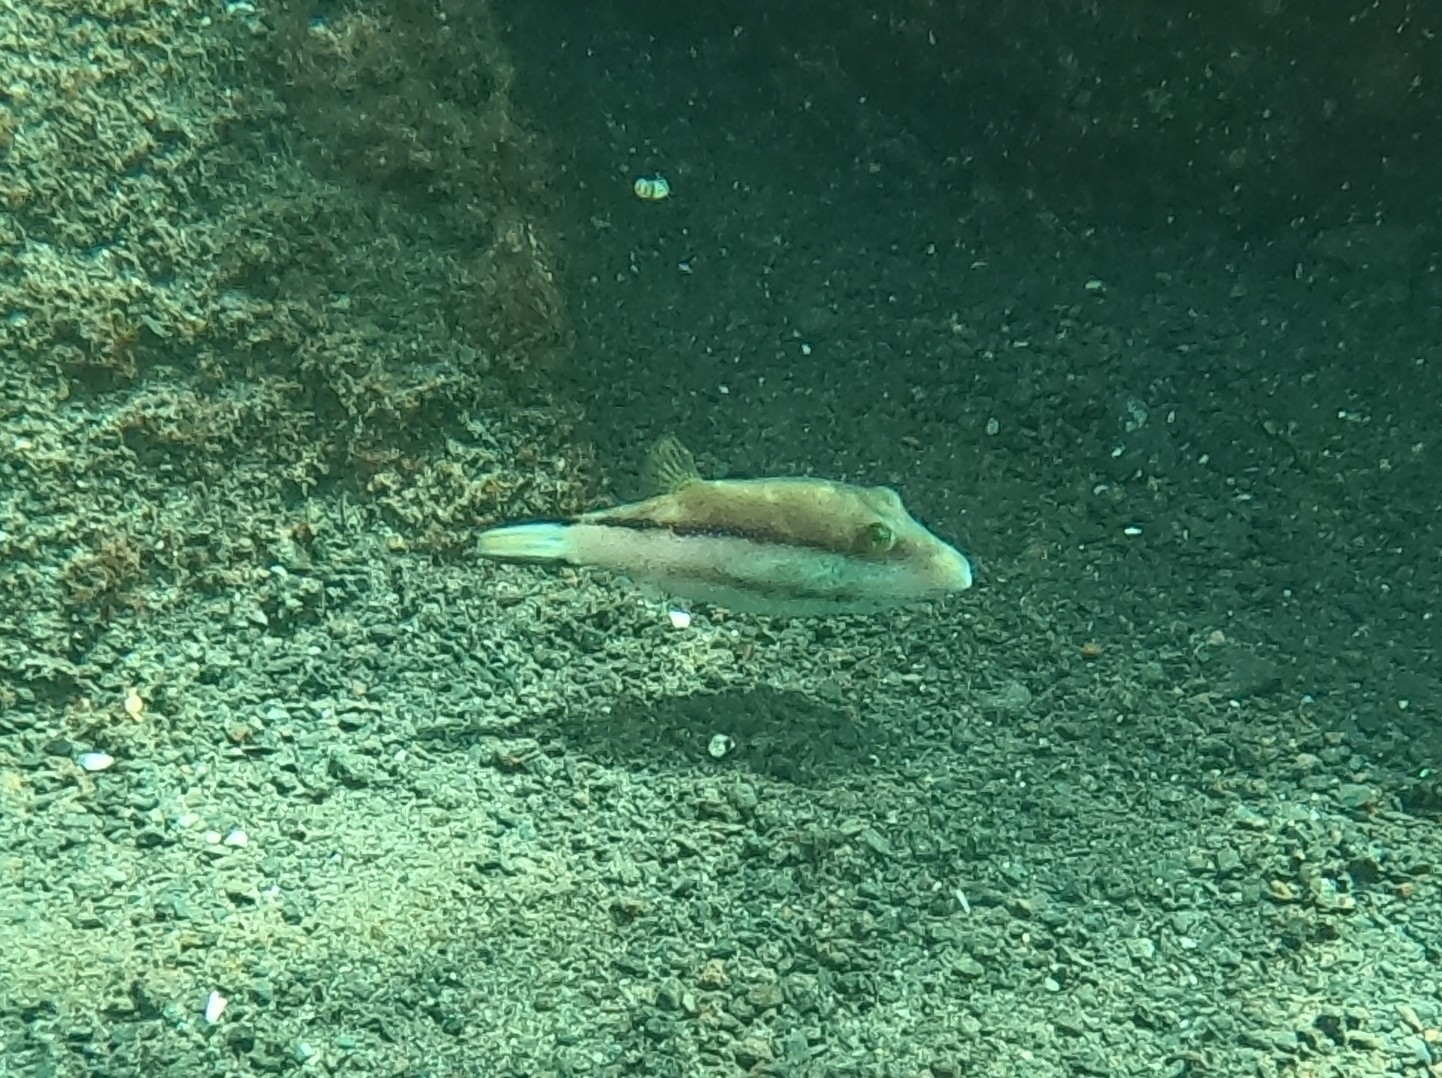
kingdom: Animalia
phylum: Chordata
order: Tetraodontiformes
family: Tetraodontidae
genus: Canthigaster
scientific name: Canthigaster capistrata
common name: Macaronesian sharpnose-puffer
